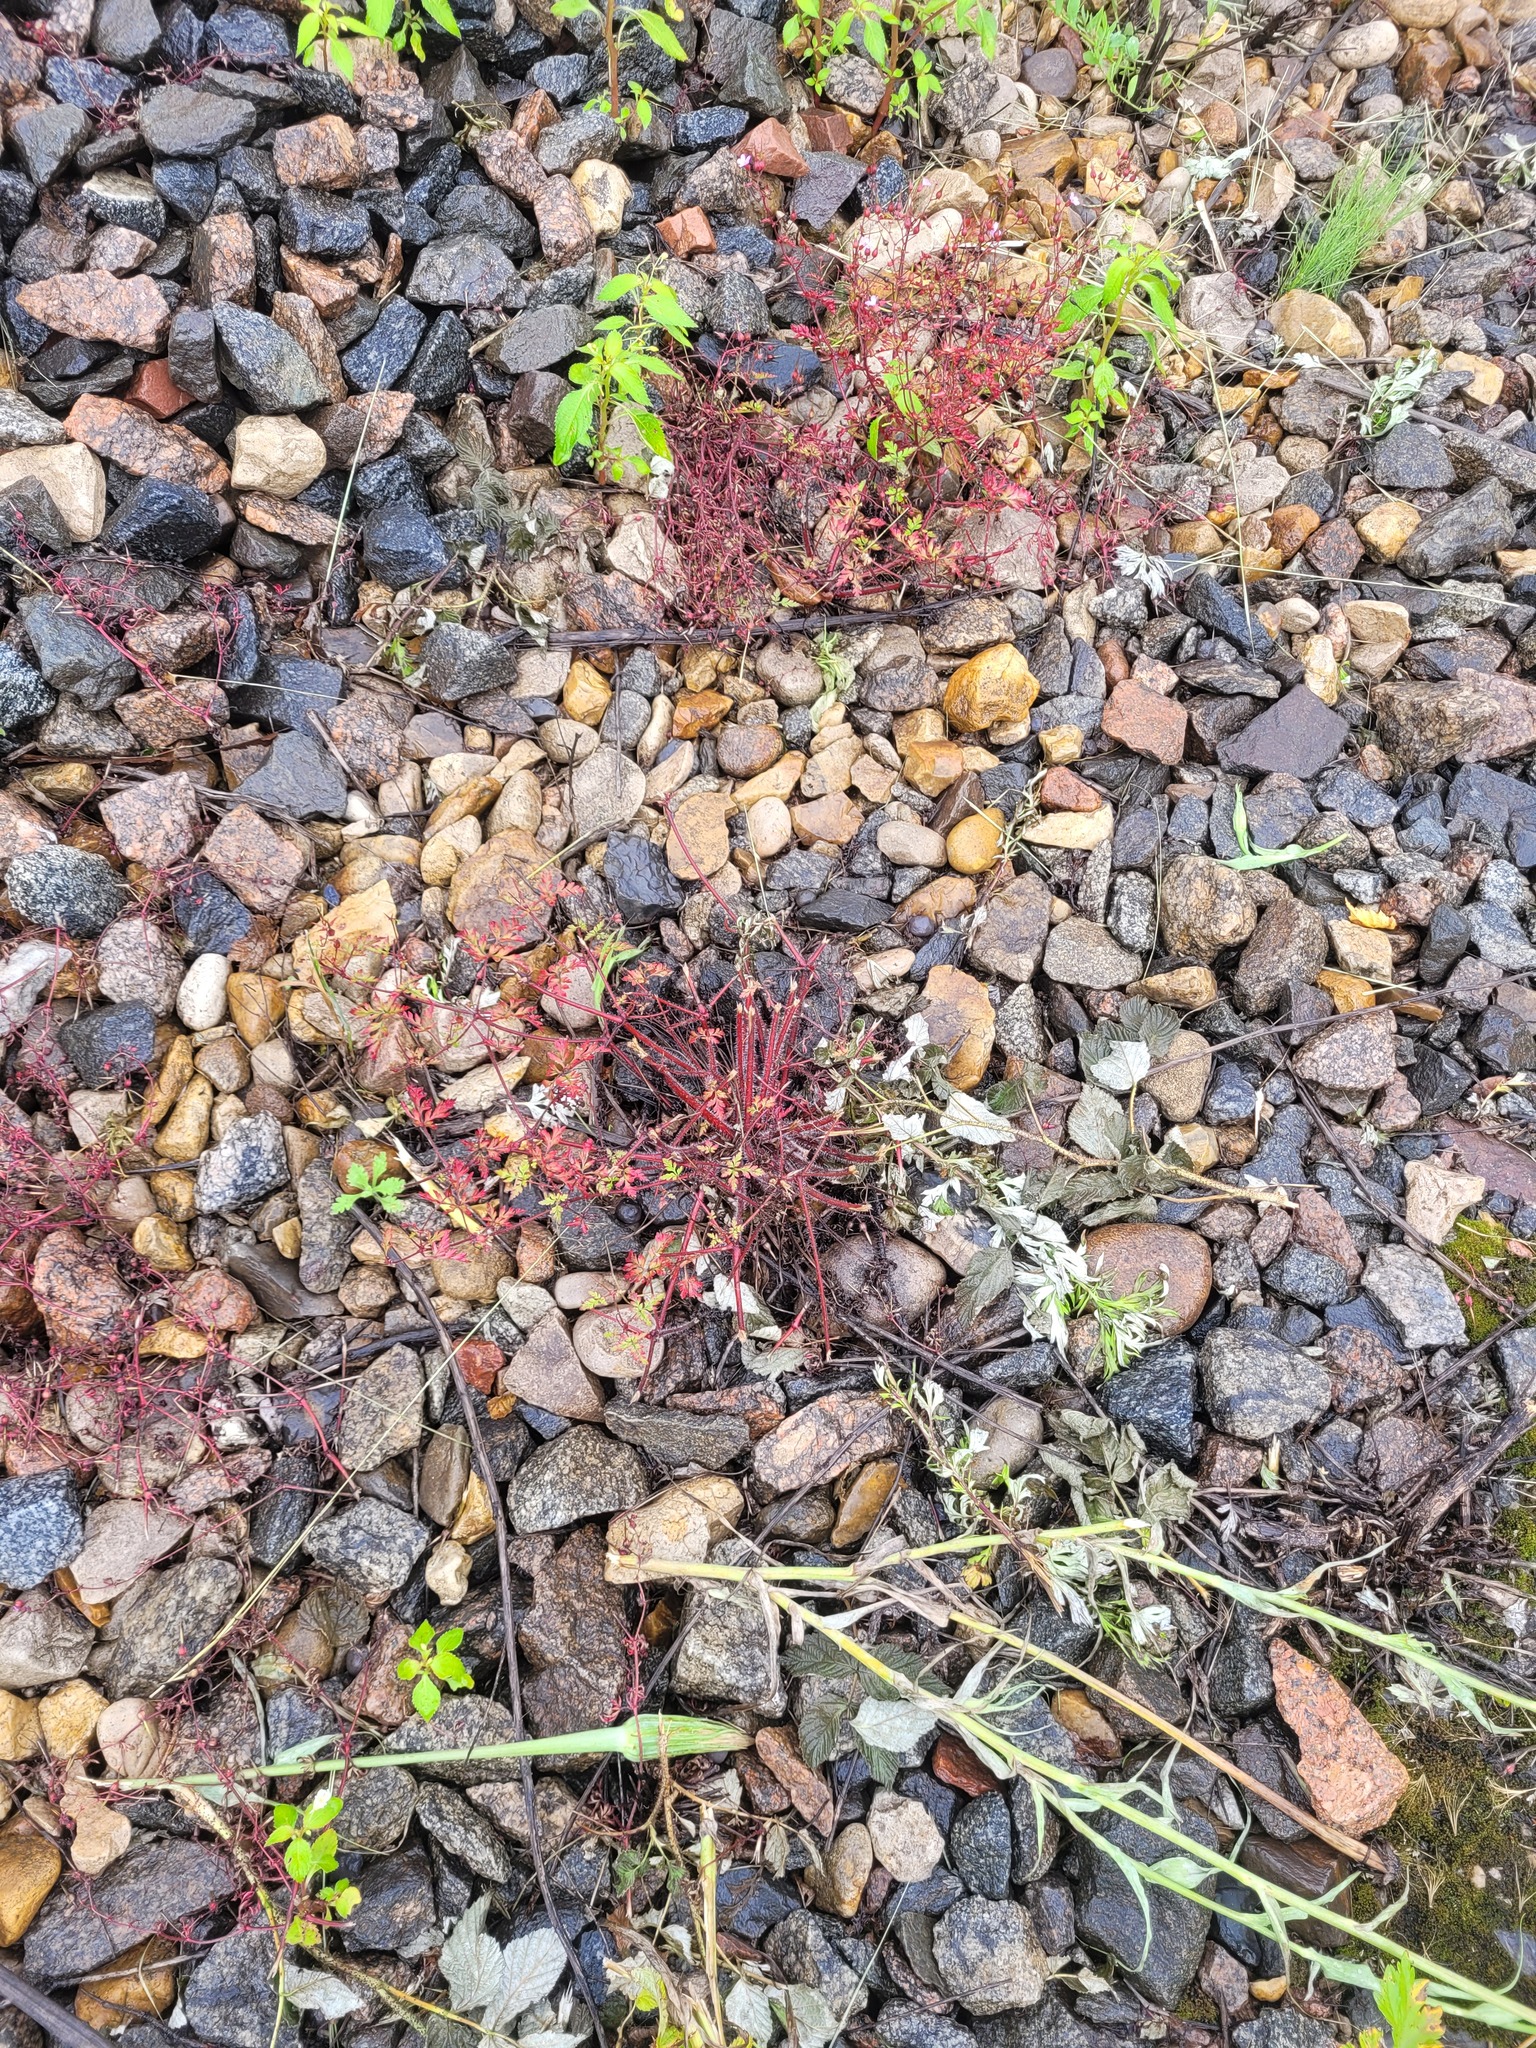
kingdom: Plantae
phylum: Tracheophyta
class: Magnoliopsida
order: Geraniales
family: Geraniaceae
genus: Geranium
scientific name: Geranium robertianum
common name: Herb-robert
